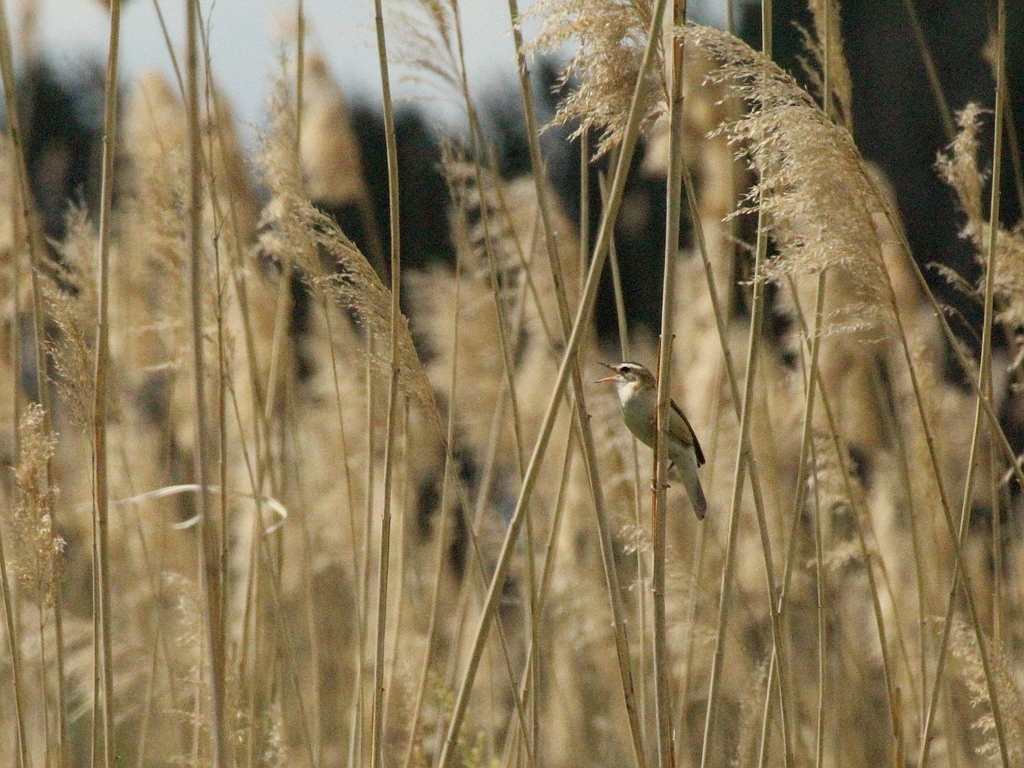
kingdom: Animalia
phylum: Chordata
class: Aves
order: Passeriformes
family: Acrocephalidae
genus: Acrocephalus
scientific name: Acrocephalus schoenobaenus
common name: Sedge warbler
